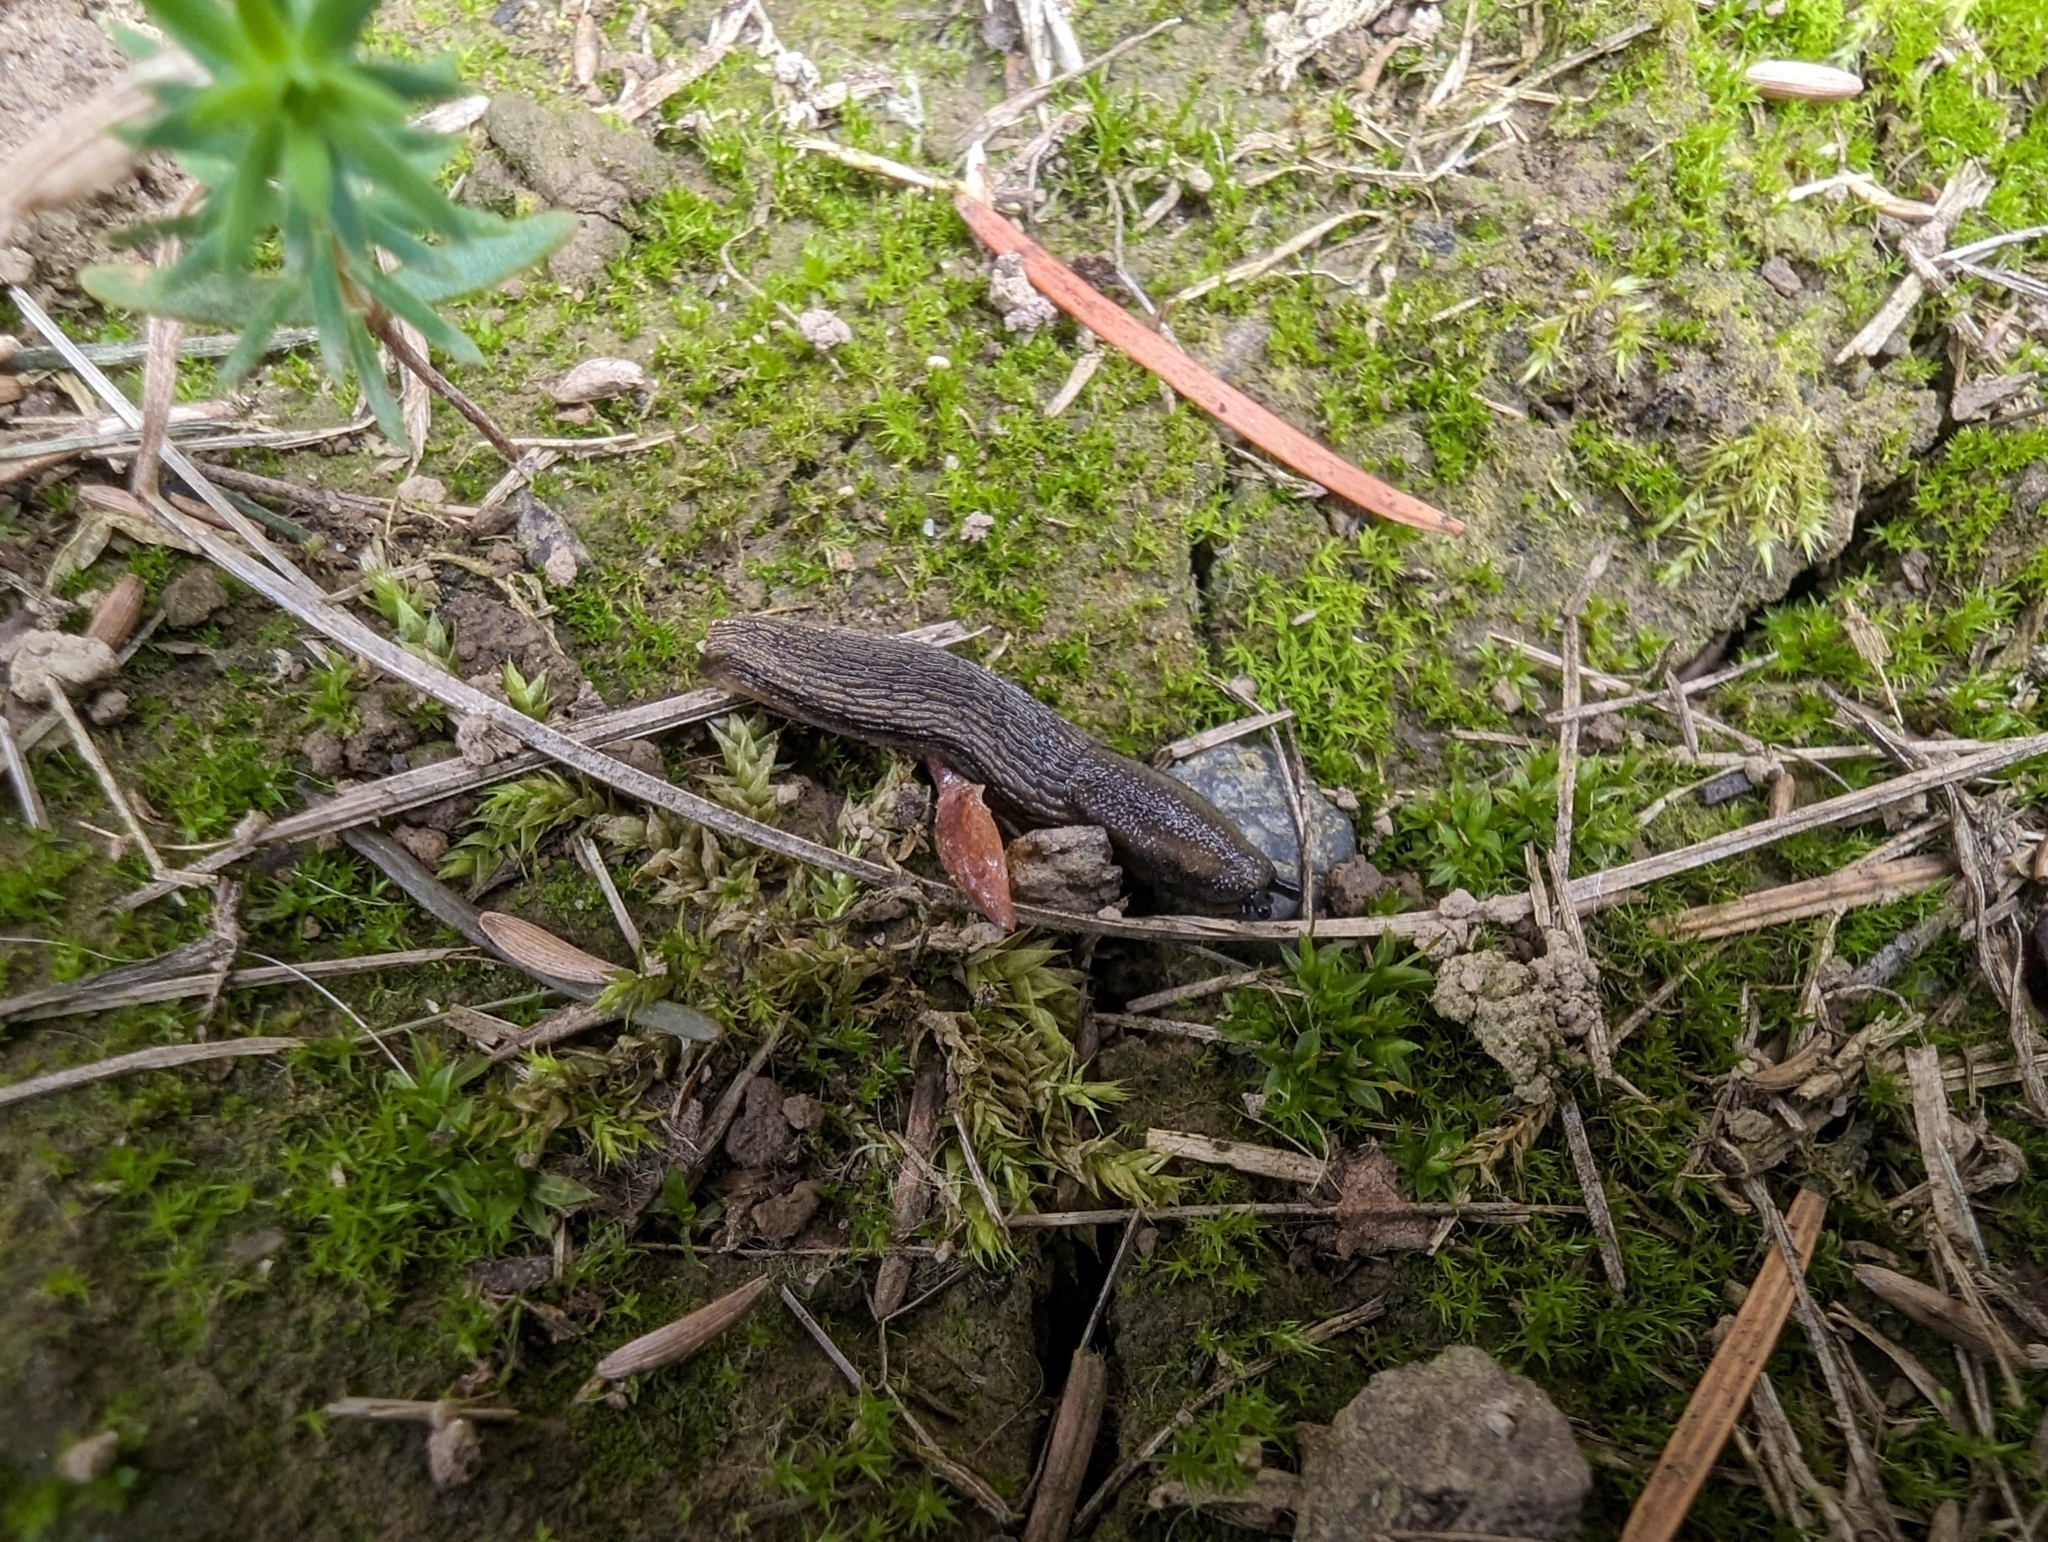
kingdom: Animalia
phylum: Mollusca
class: Gastropoda
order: Stylommatophora
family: Arionidae
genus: Arion
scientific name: Arion
